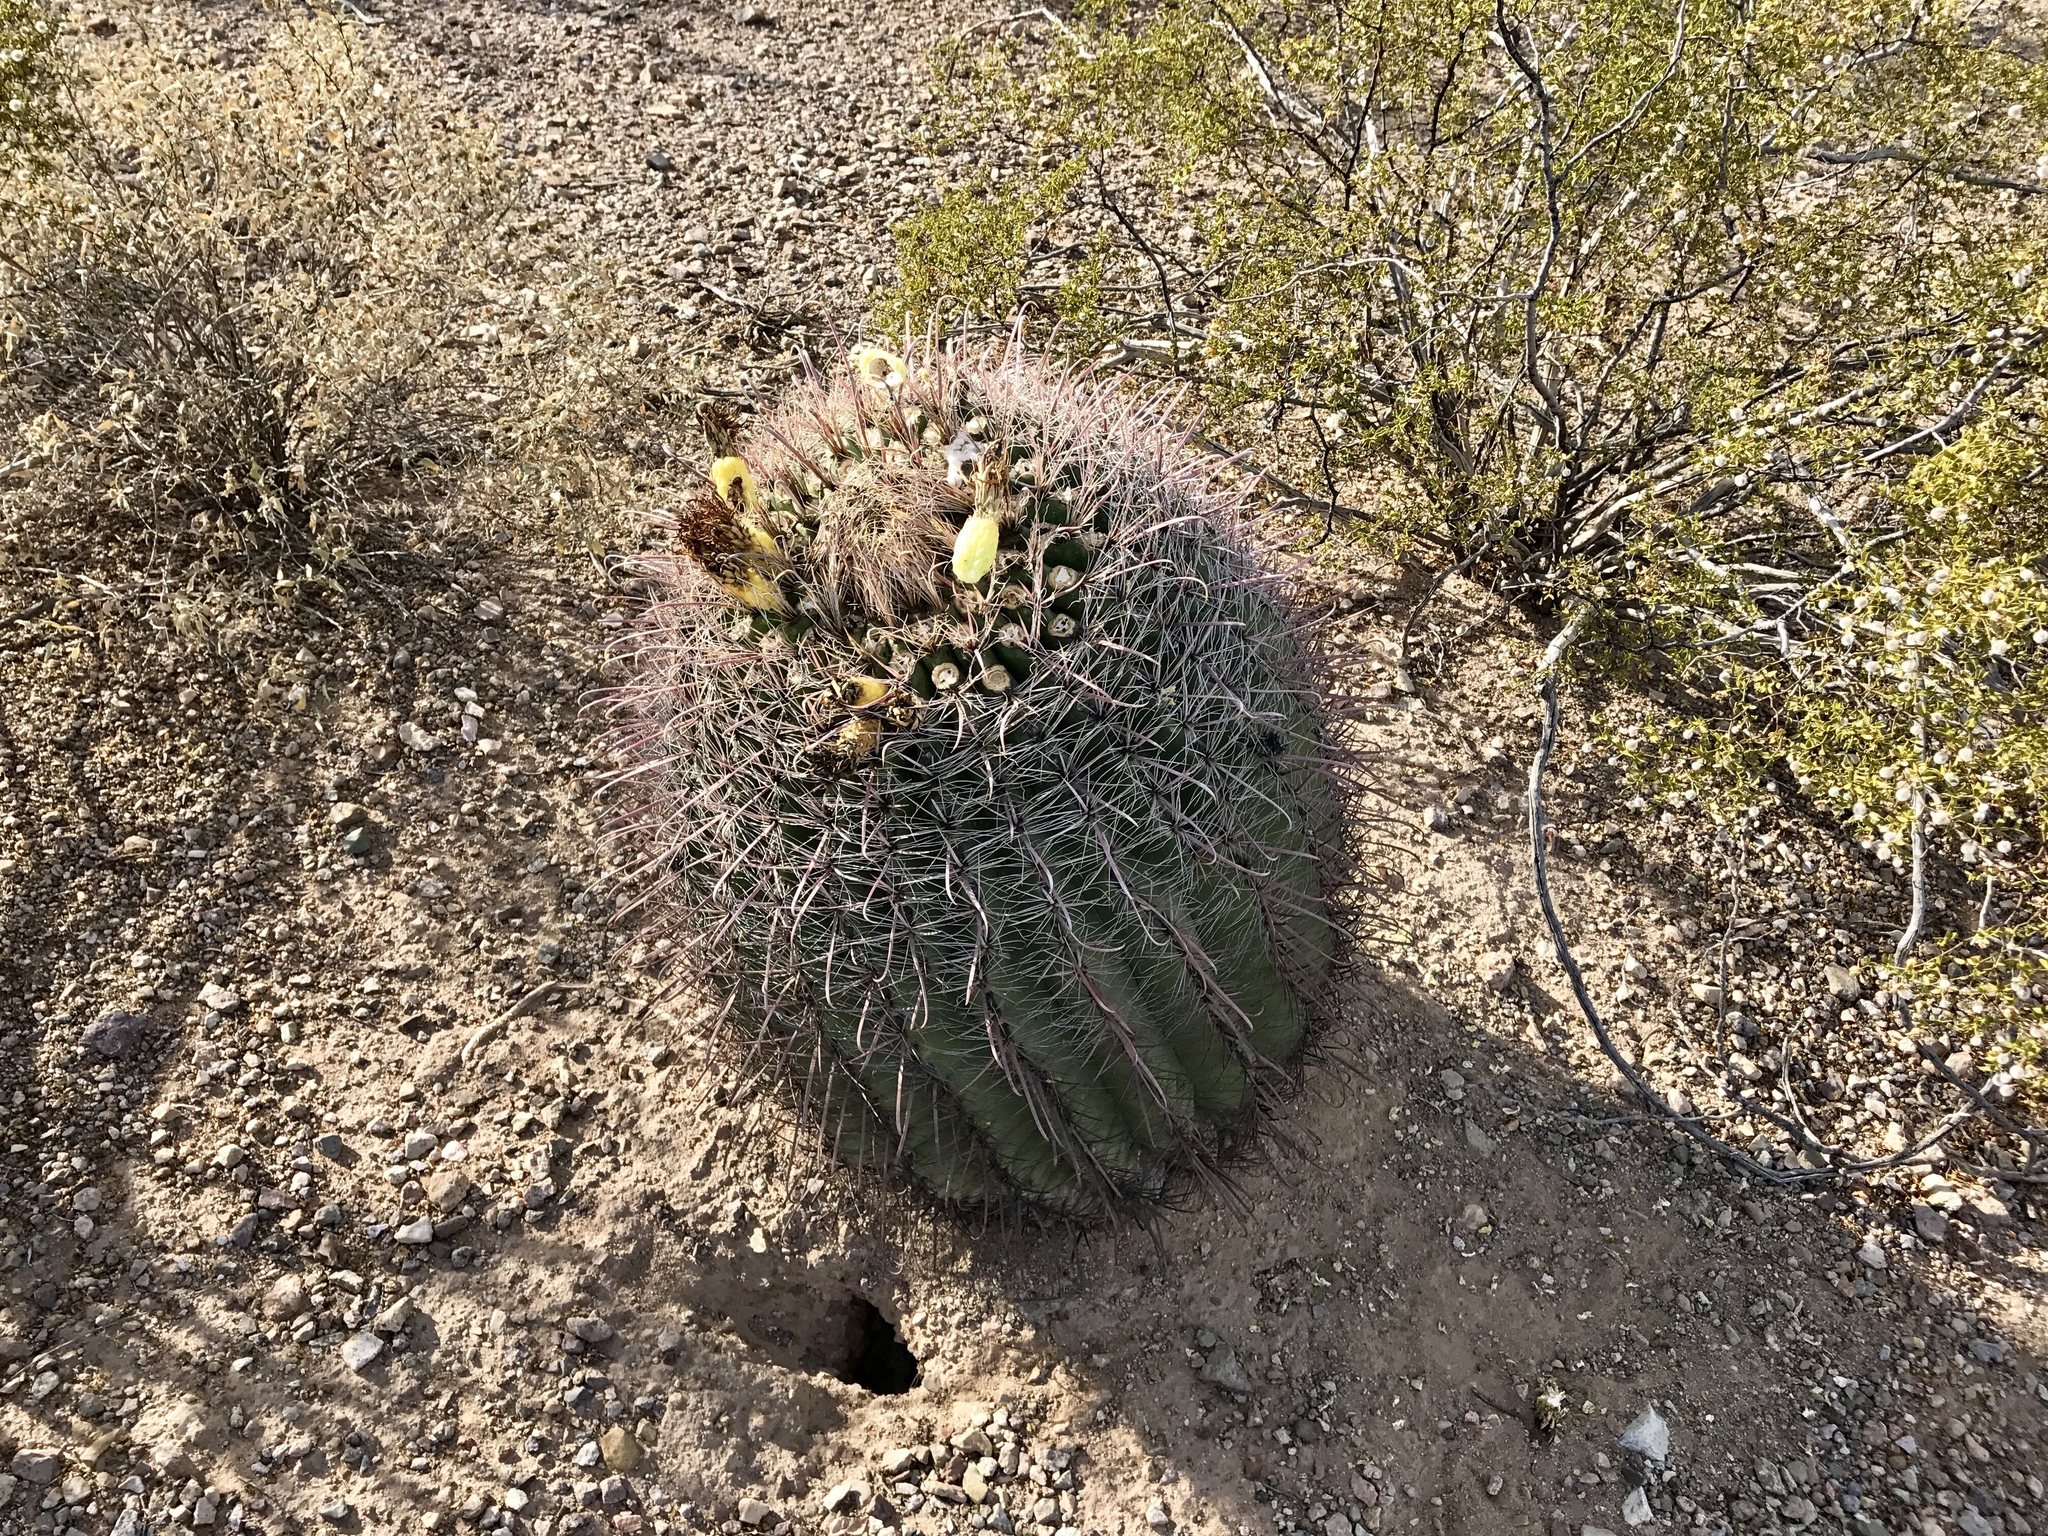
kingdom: Plantae
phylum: Tracheophyta
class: Magnoliopsida
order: Caryophyllales
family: Cactaceae
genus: Ferocactus
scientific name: Ferocactus wislizeni
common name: Candy barrel cactus
